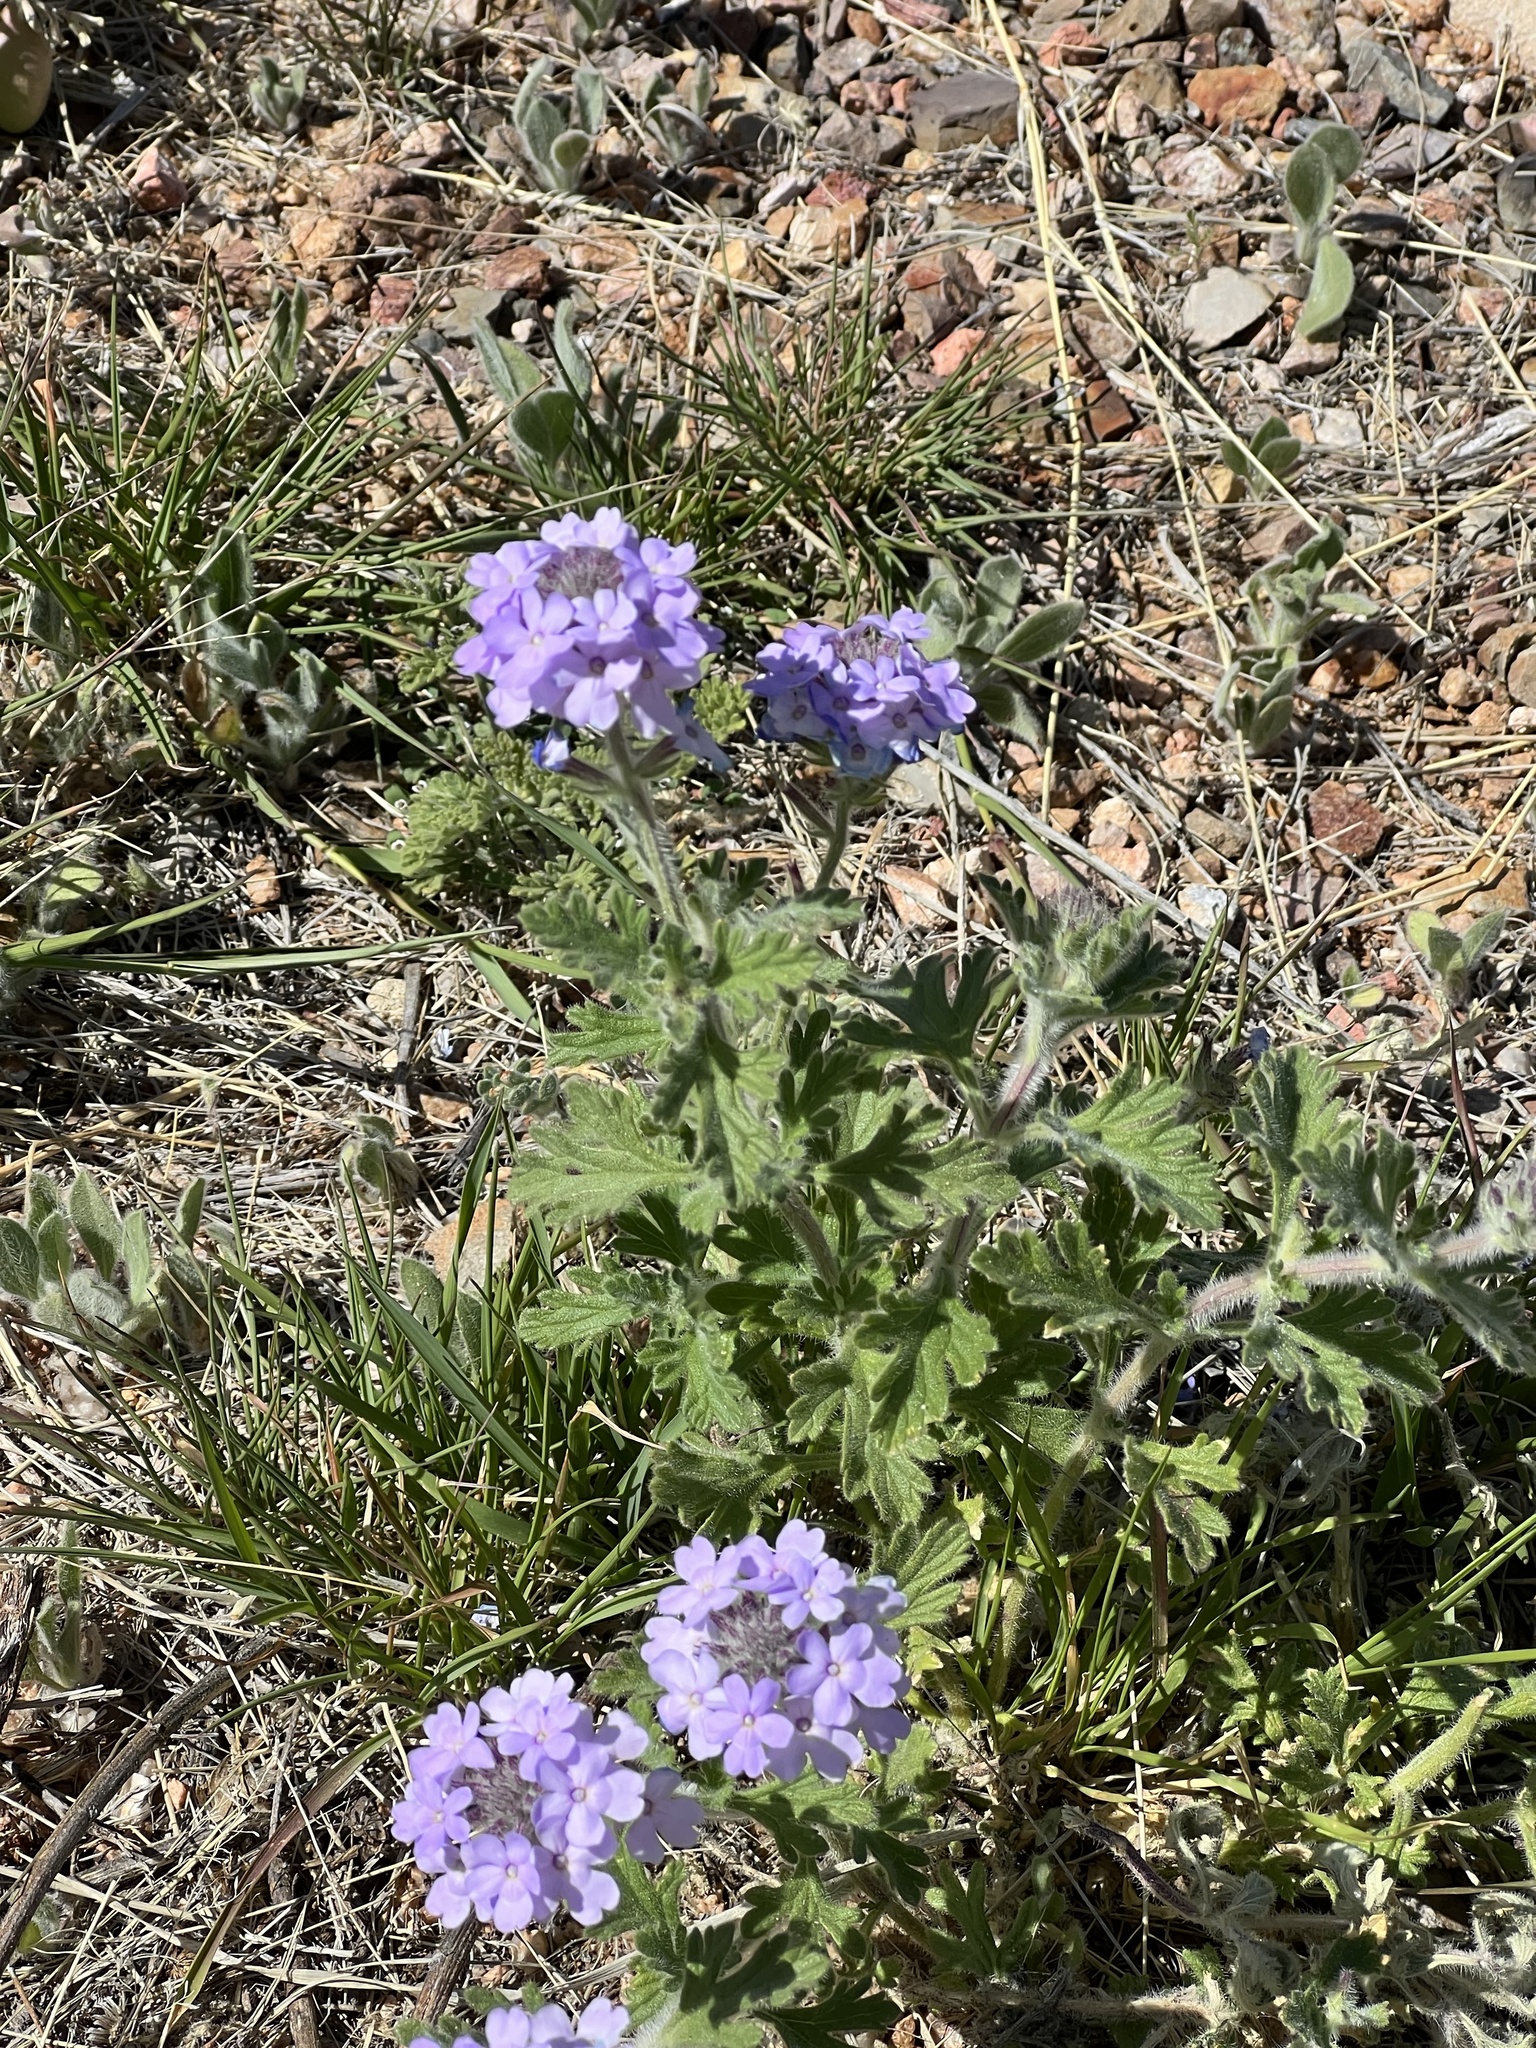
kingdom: Plantae
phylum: Tracheophyta
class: Magnoliopsida
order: Lamiales
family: Verbenaceae
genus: Verbena
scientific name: Verbena gooddingii
